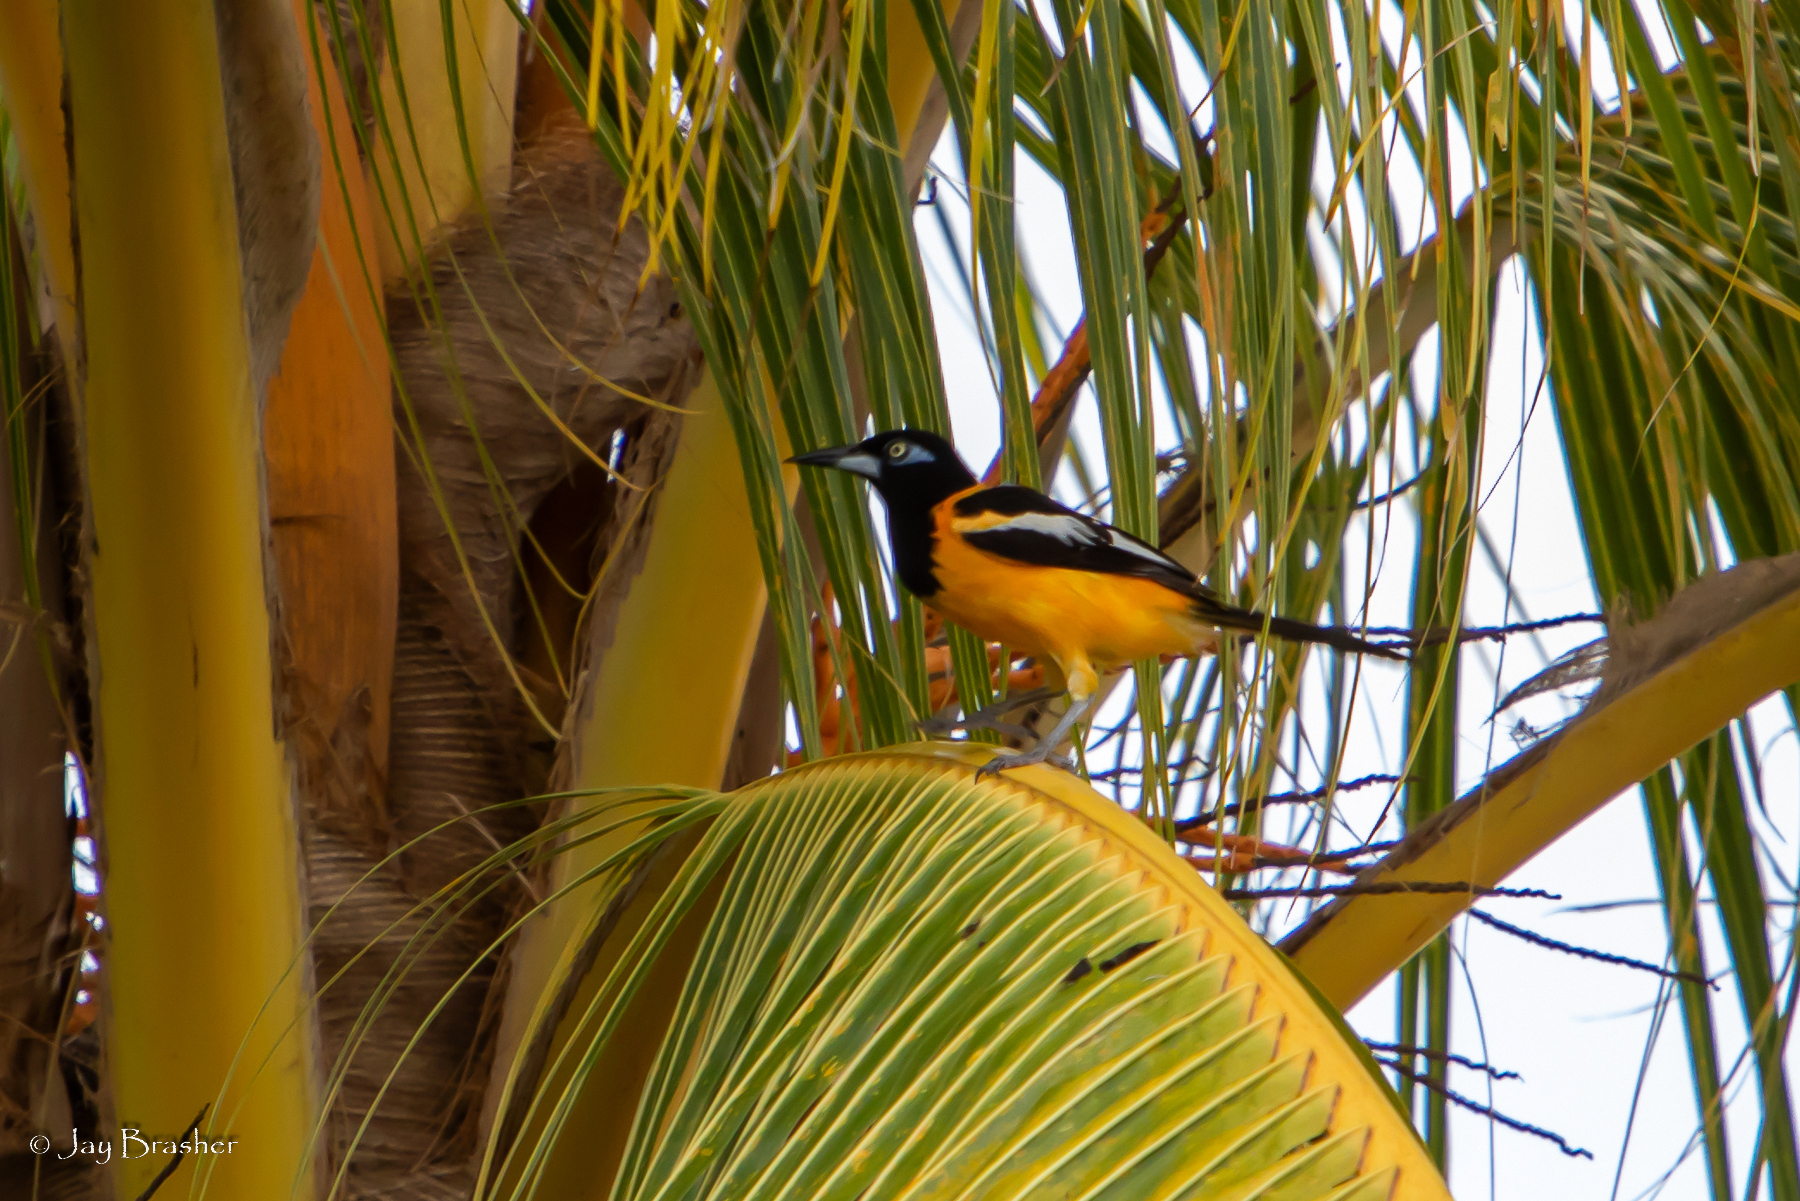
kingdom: Animalia
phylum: Chordata
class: Aves
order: Passeriformes
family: Icteridae
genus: Icterus
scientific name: Icterus icterus
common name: Venezuelan troupial
